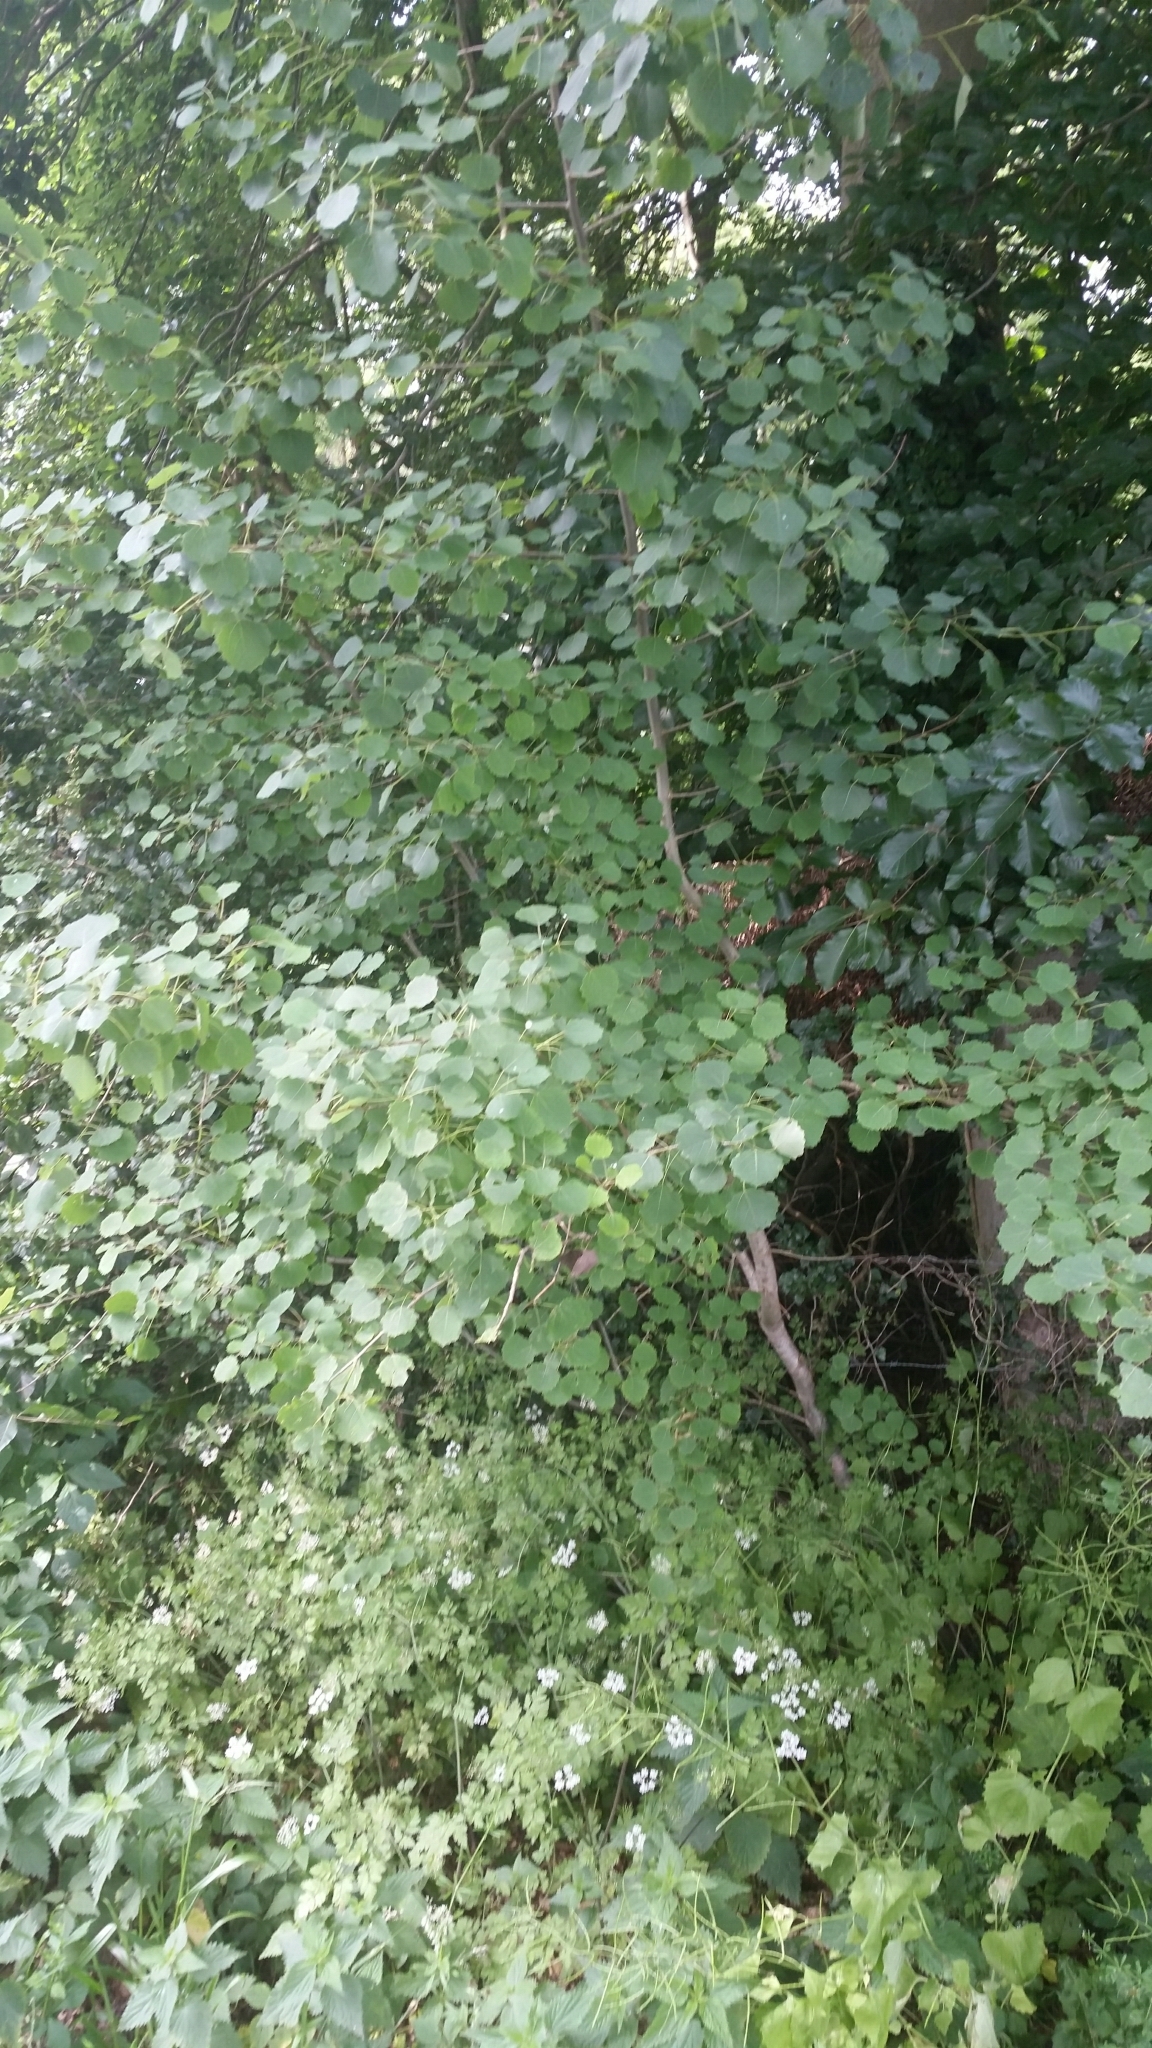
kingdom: Plantae
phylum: Tracheophyta
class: Magnoliopsida
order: Malpighiales
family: Salicaceae
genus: Populus
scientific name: Populus tremula
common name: European aspen
